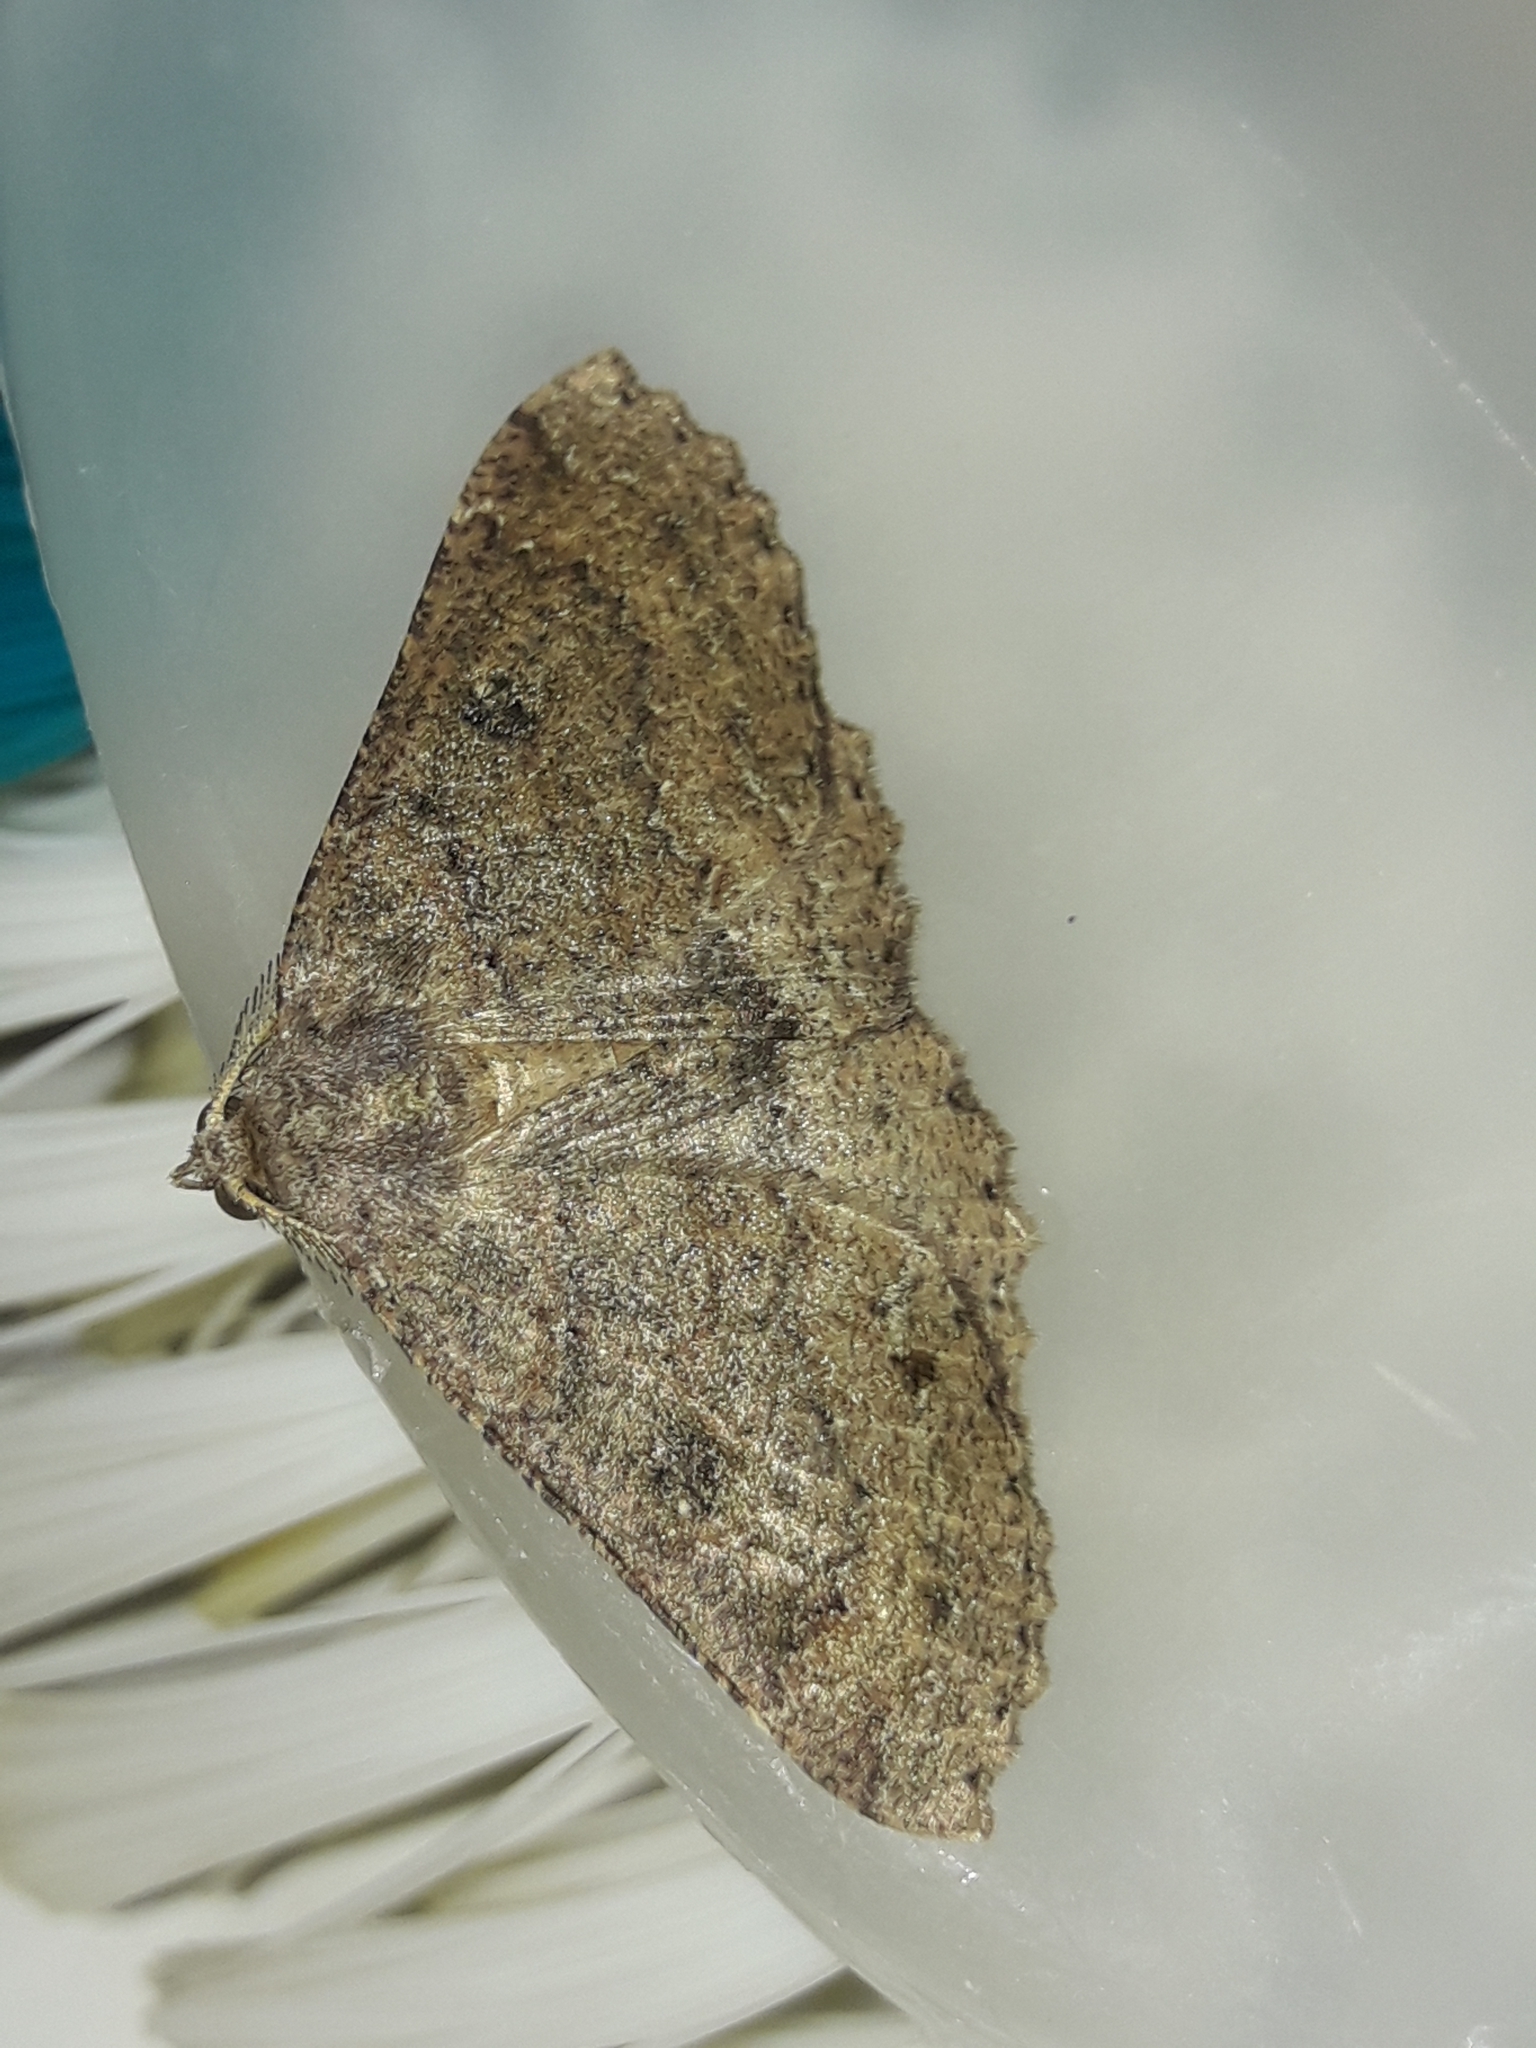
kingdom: Animalia
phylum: Arthropoda
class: Insecta
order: Lepidoptera
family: Geometridae
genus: Cleora
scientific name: Cleora scriptaria
